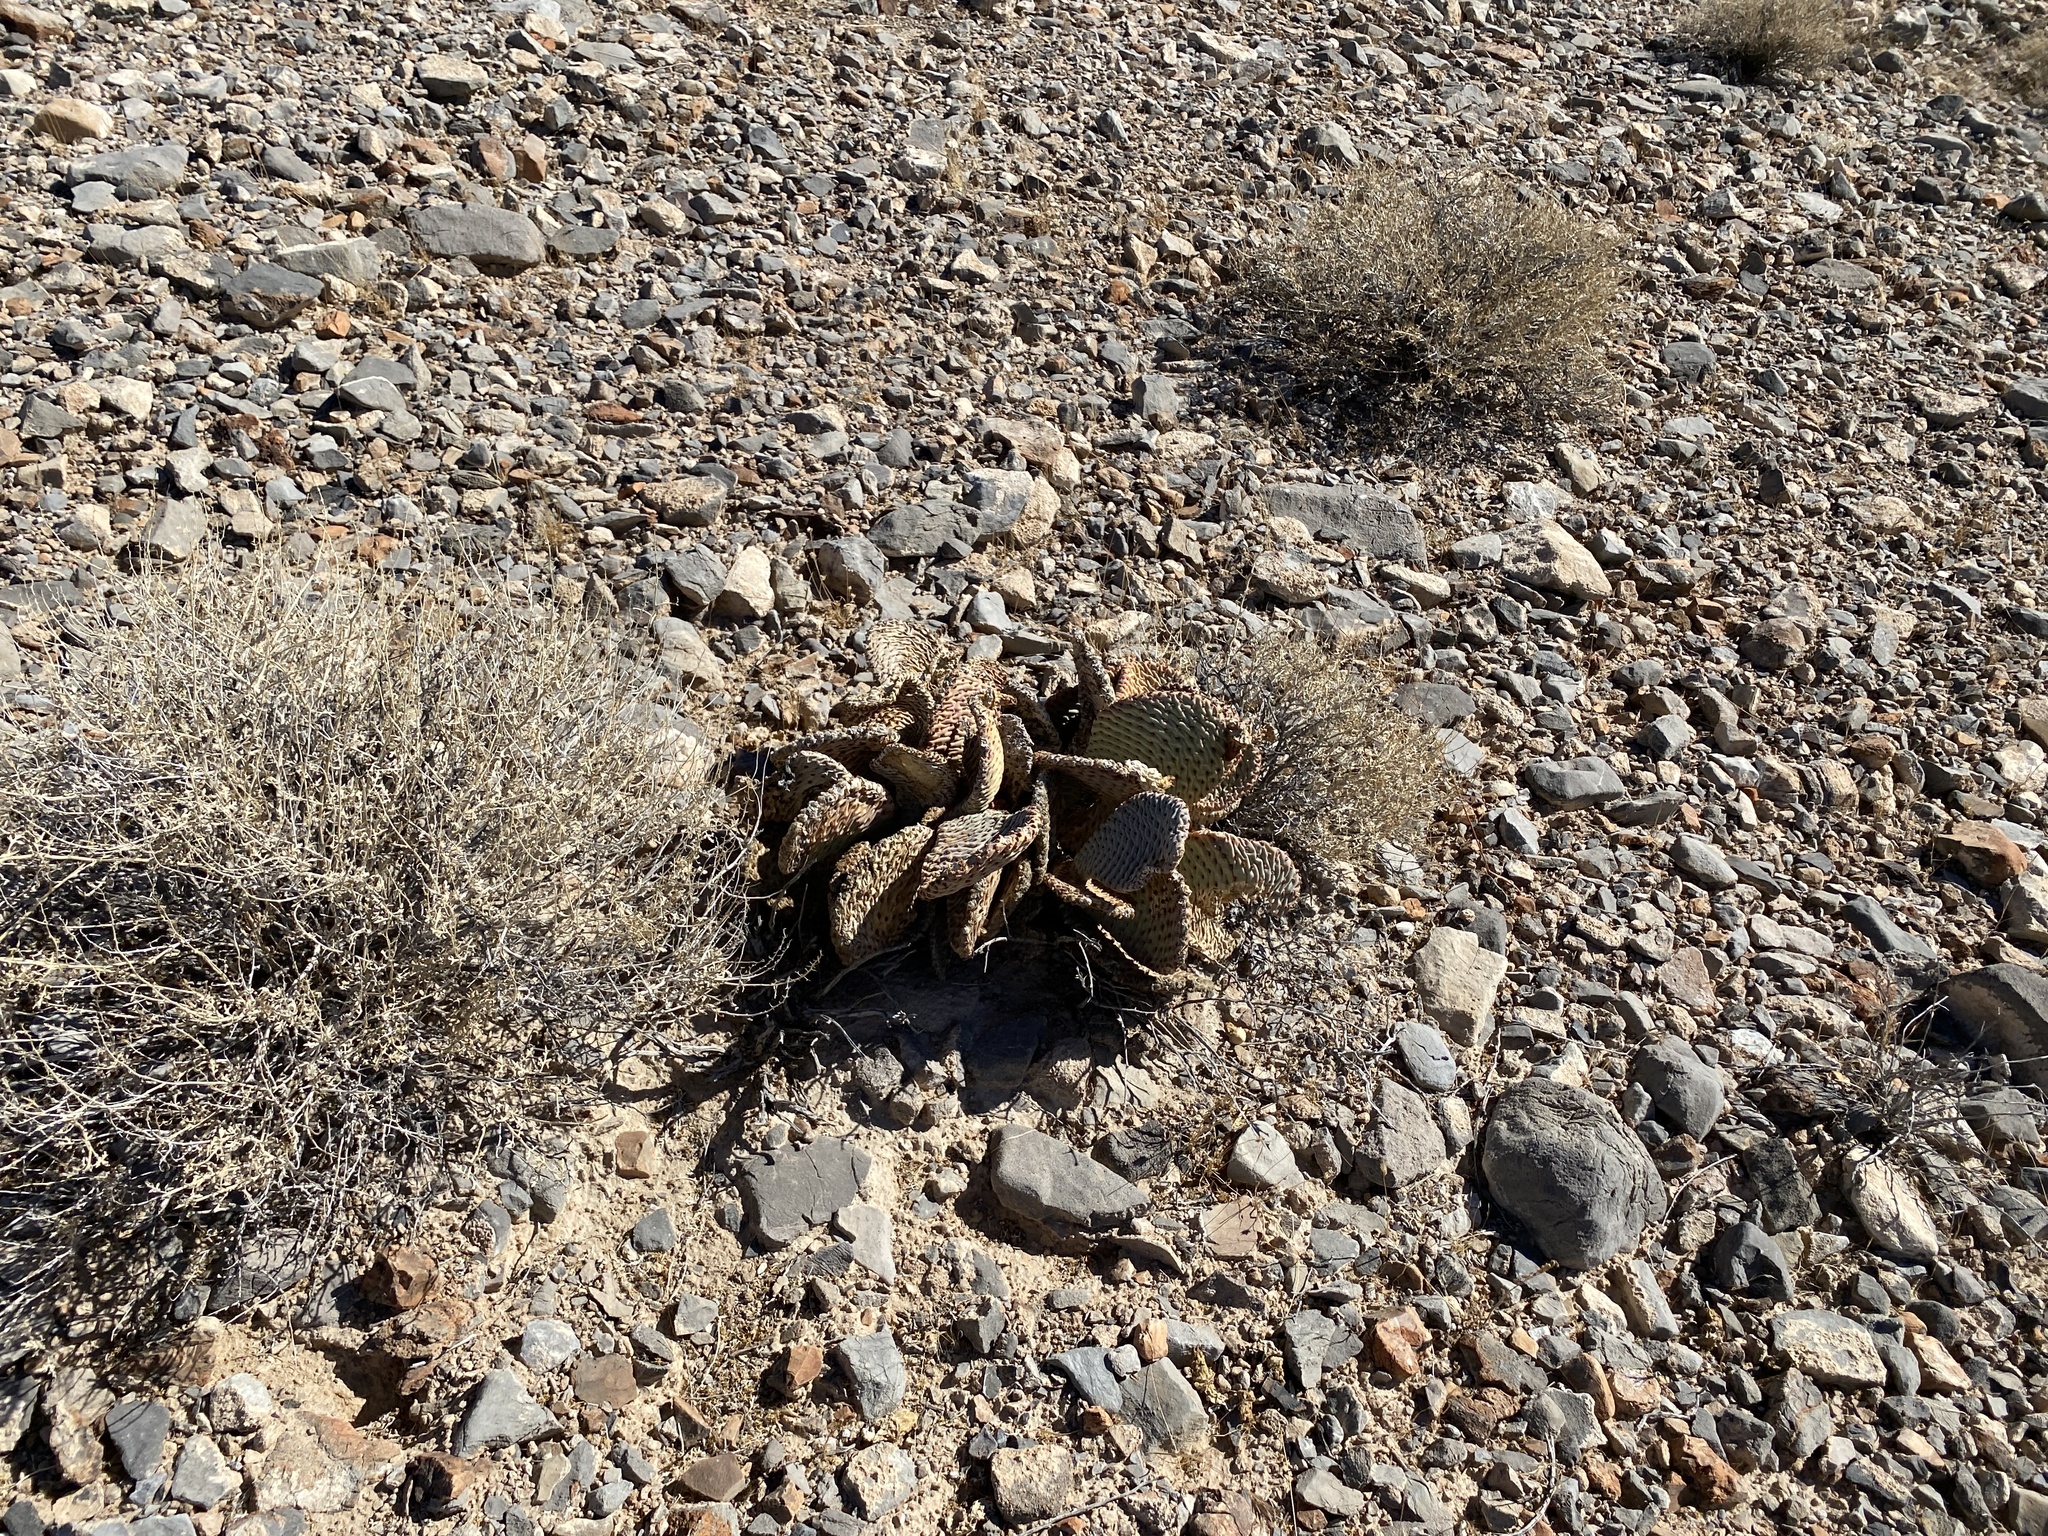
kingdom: Plantae
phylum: Tracheophyta
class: Magnoliopsida
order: Caryophyllales
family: Cactaceae
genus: Opuntia
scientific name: Opuntia basilaris
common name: Beavertail prickly-pear
